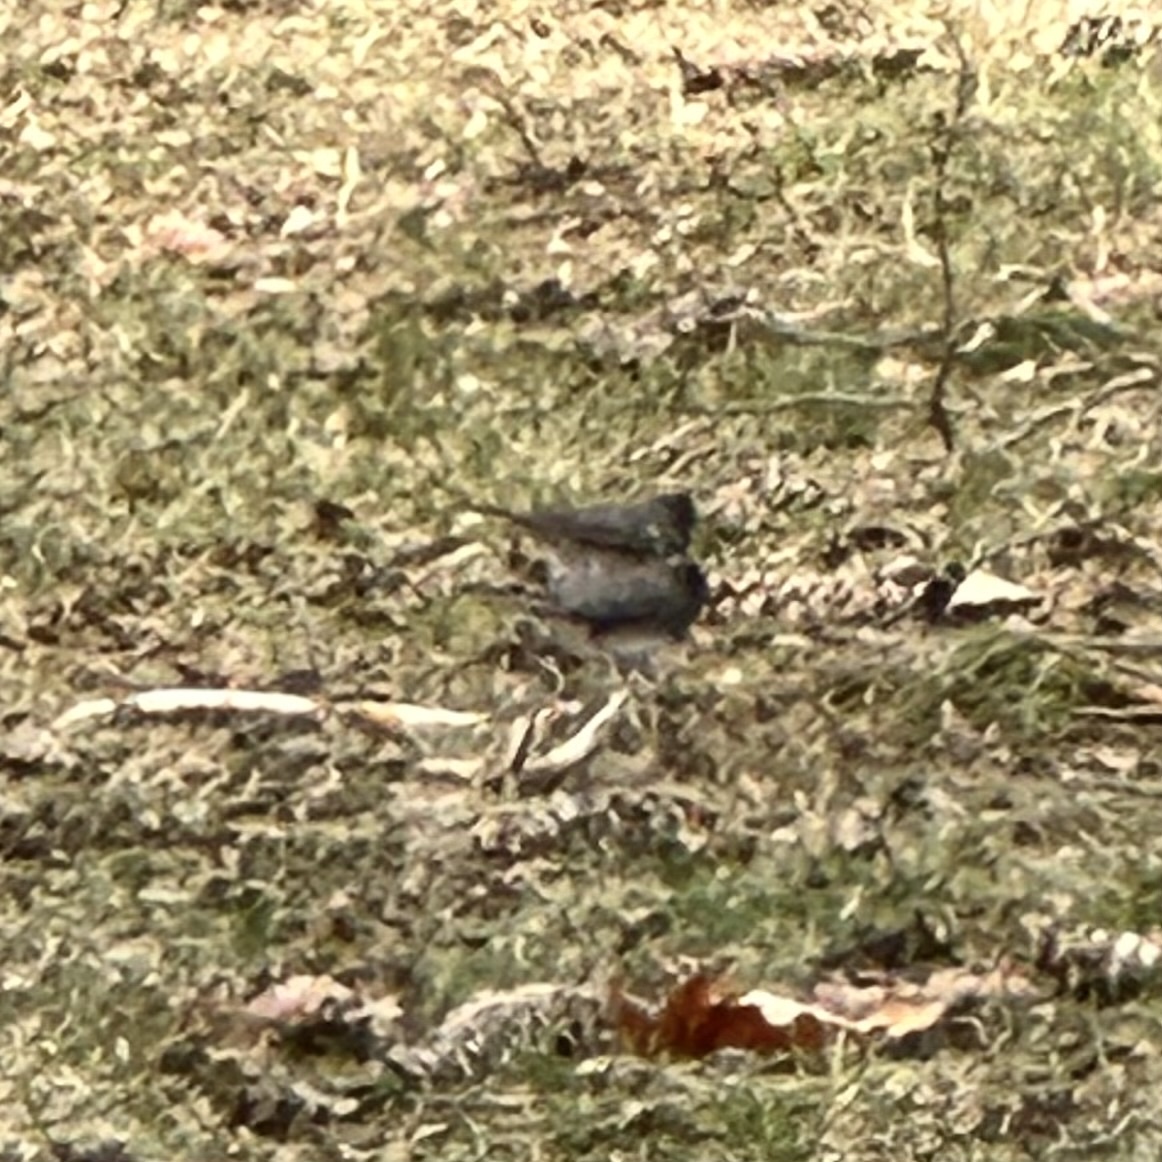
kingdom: Animalia
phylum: Chordata
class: Aves
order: Passeriformes
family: Passerellidae
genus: Junco
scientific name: Junco hyemalis
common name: Dark-eyed junco
